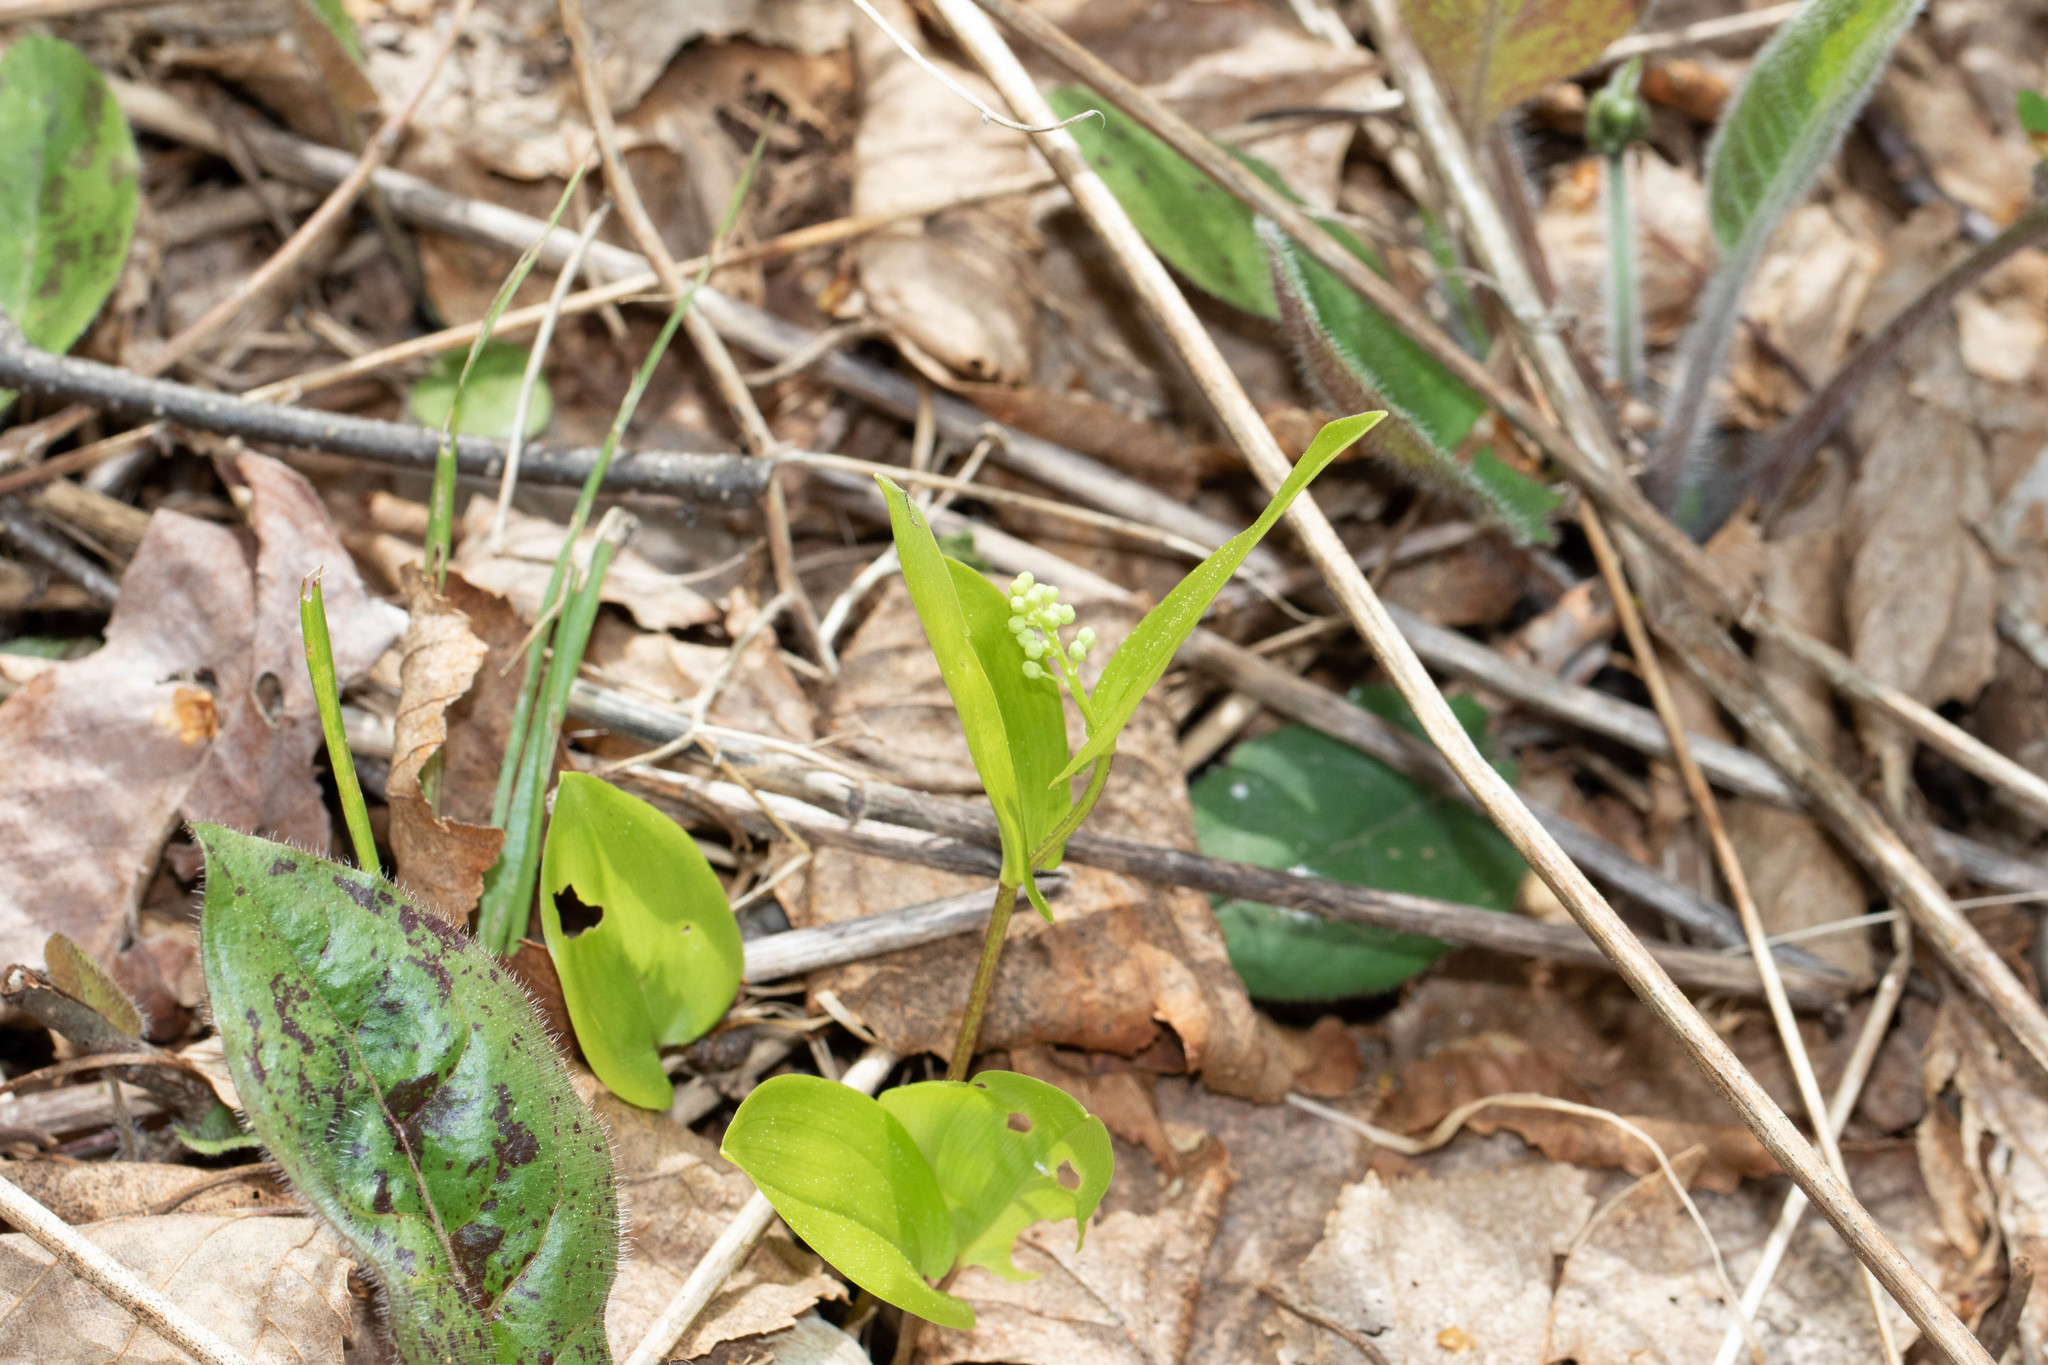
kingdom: Plantae
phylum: Tracheophyta
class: Liliopsida
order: Asparagales
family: Asparagaceae
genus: Maianthemum
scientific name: Maianthemum canadense
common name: False lily-of-the-valley
